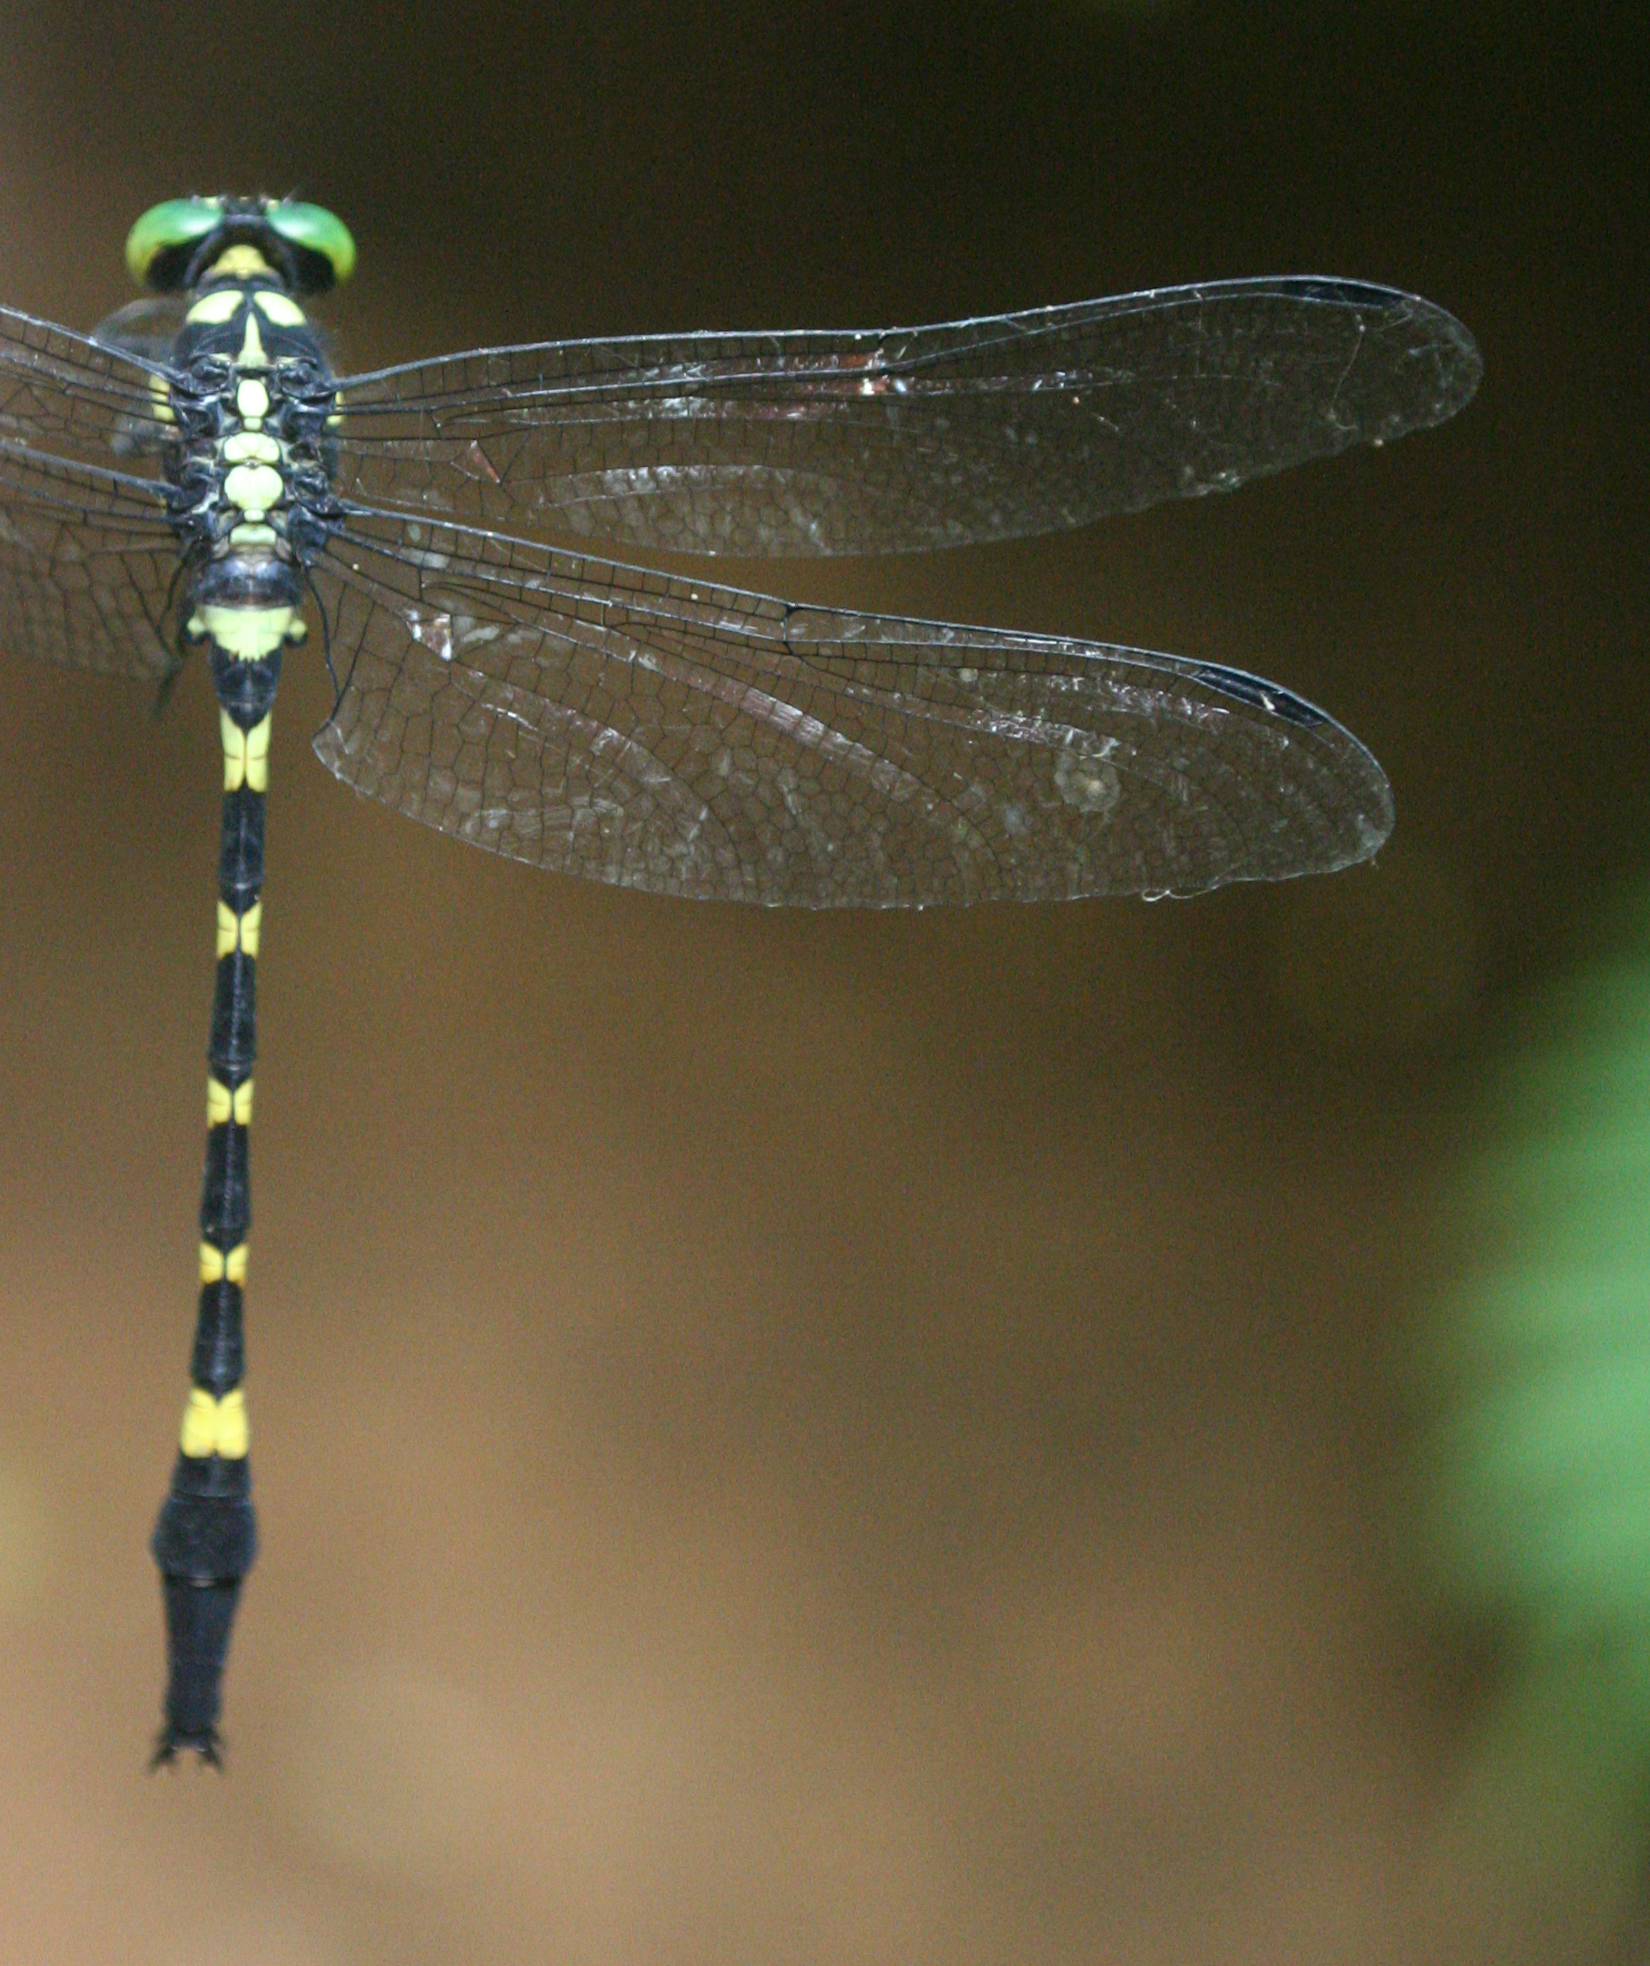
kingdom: Animalia
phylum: Arthropoda
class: Insecta
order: Odonata
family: Gomphidae
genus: Macrogomphus
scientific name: Macrogomphus kerri
